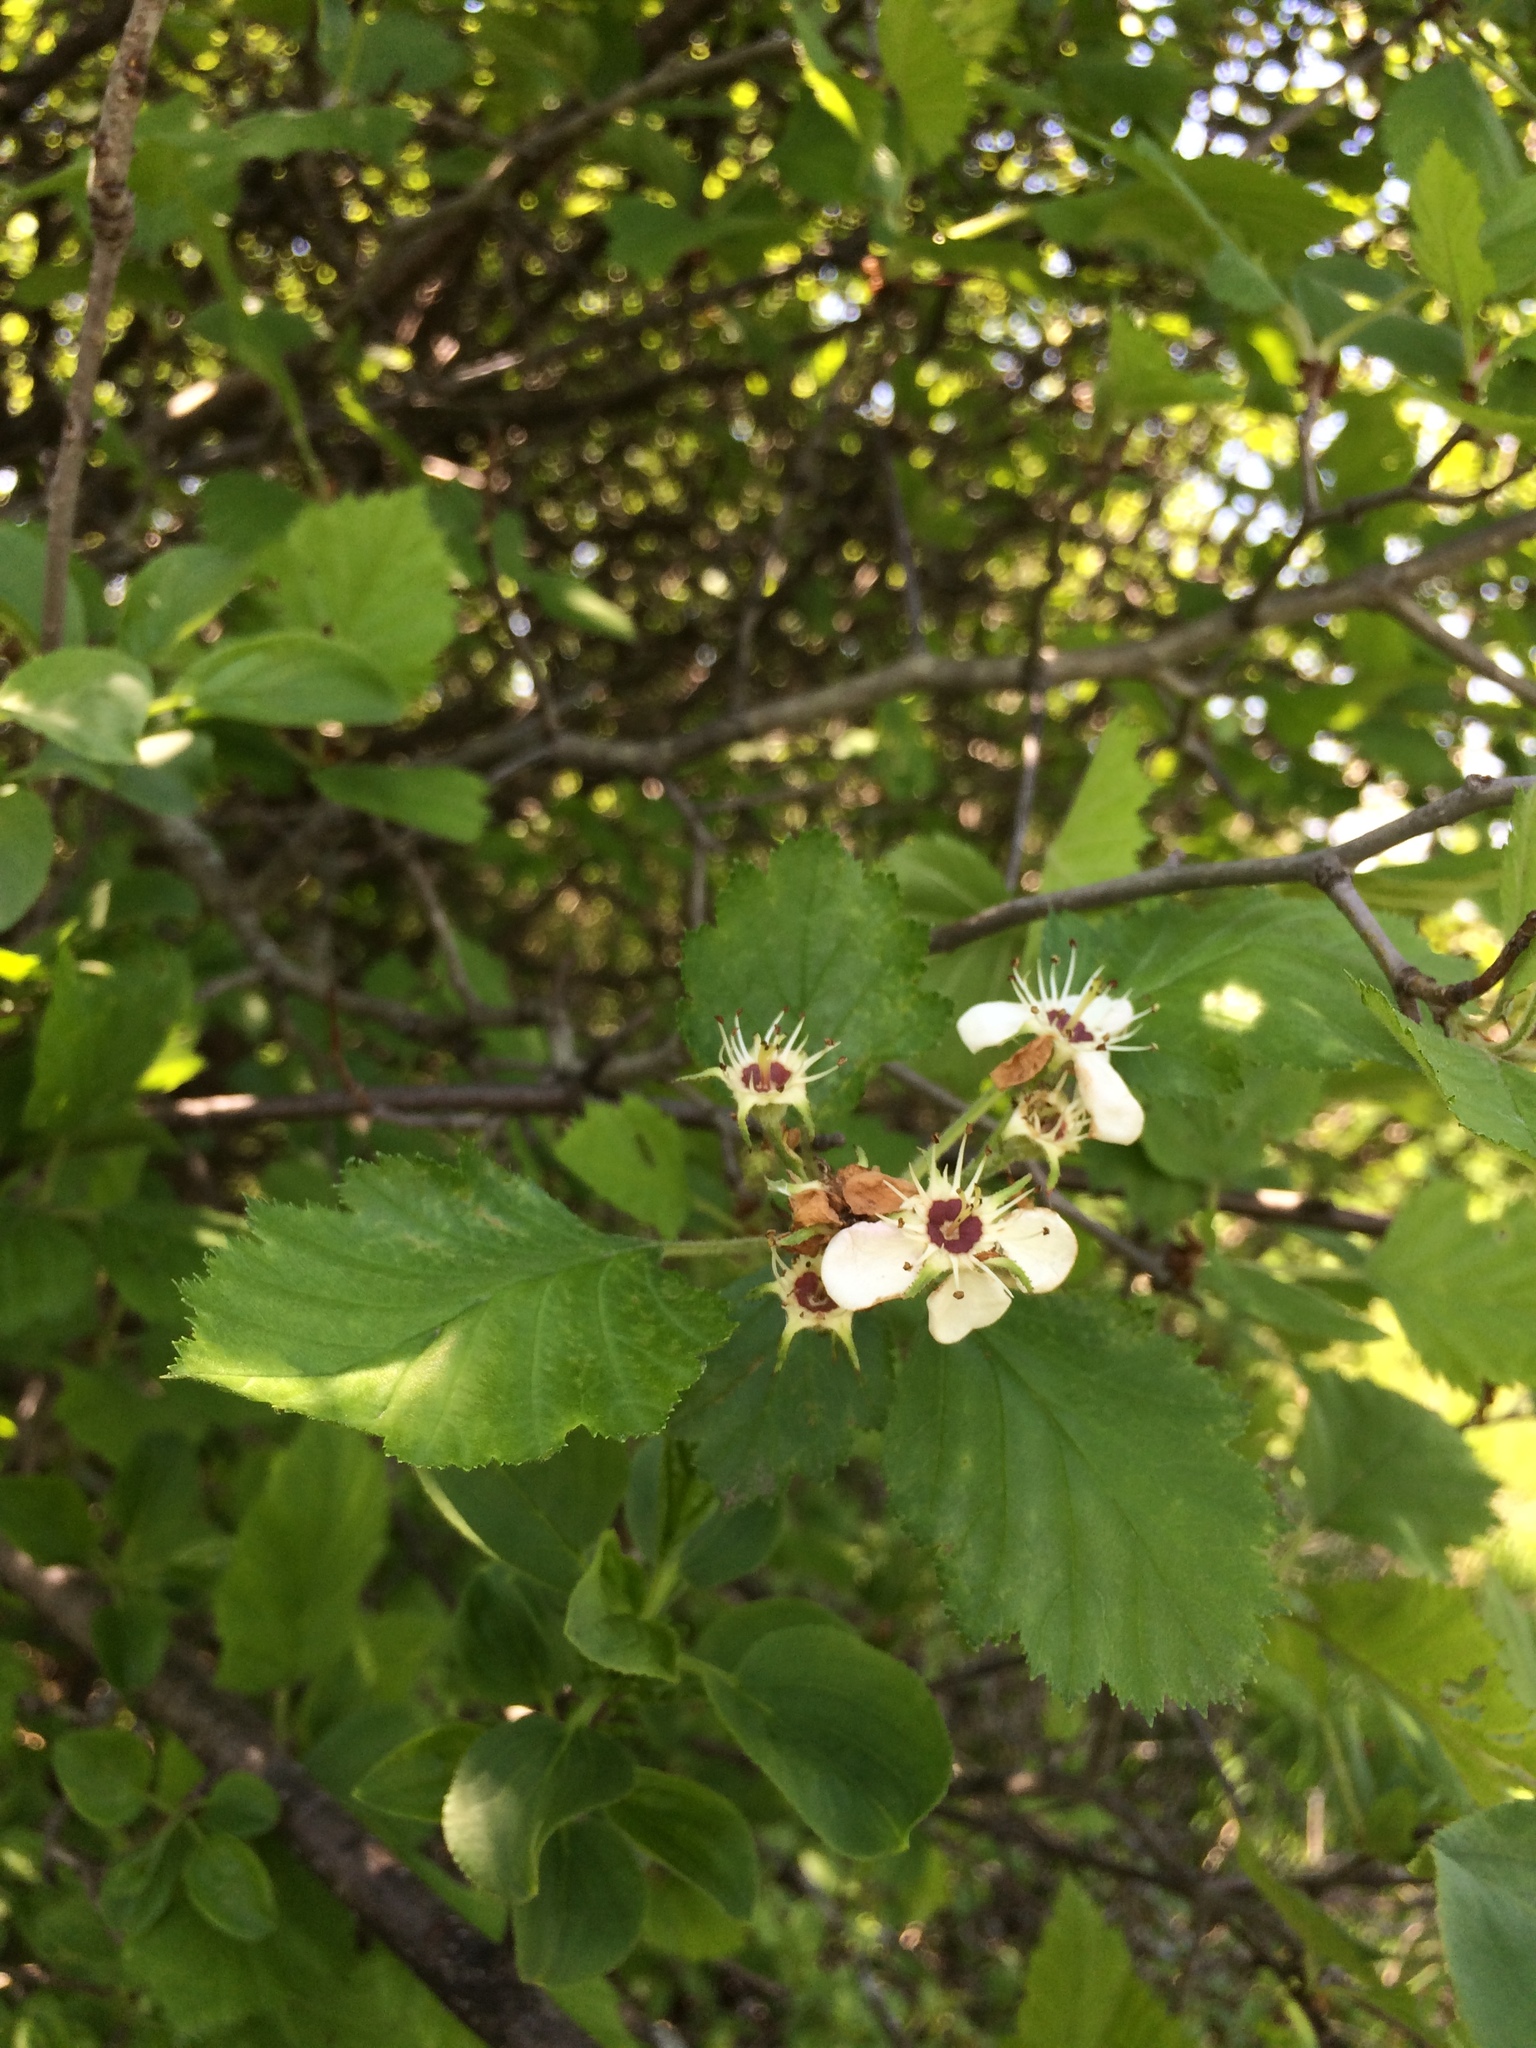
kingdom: Plantae
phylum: Tracheophyta
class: Magnoliopsida
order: Rosales
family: Rosaceae
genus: Crataegus
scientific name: Crataegus submollis
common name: Hairy cockspurthorn
